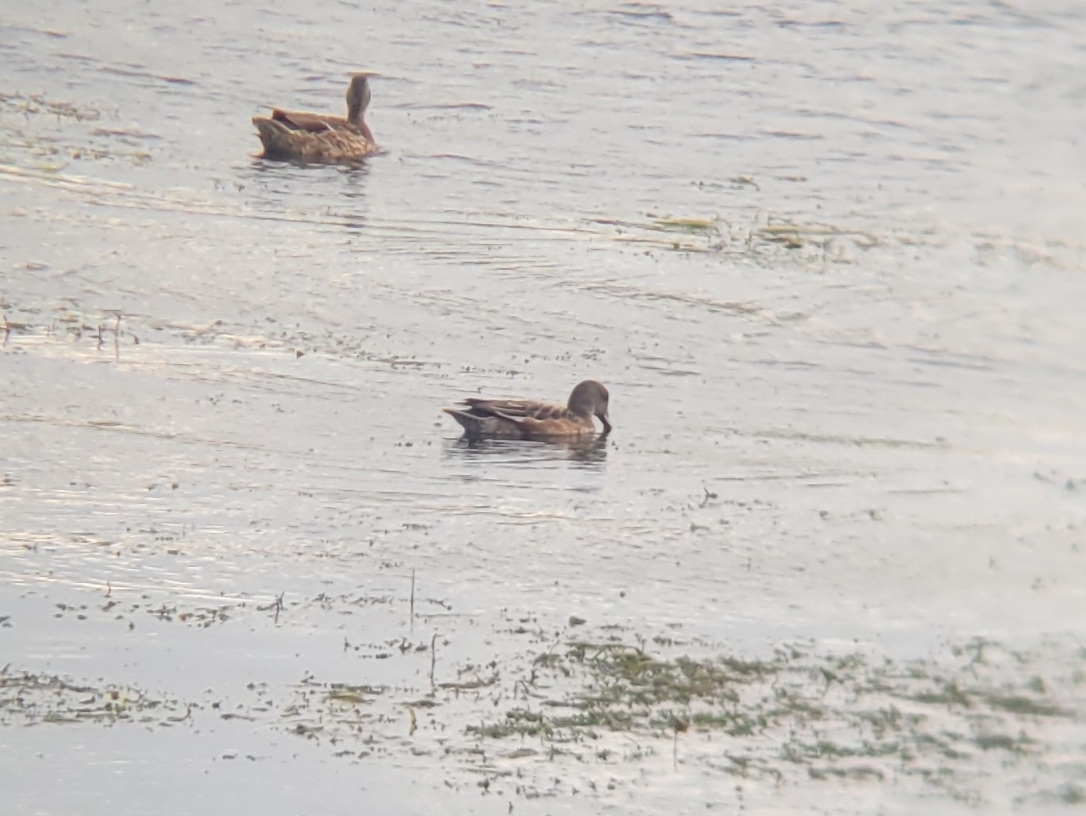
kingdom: Animalia
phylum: Chordata
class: Aves
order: Anseriformes
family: Anatidae
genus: Mareca
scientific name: Mareca americana
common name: American wigeon
